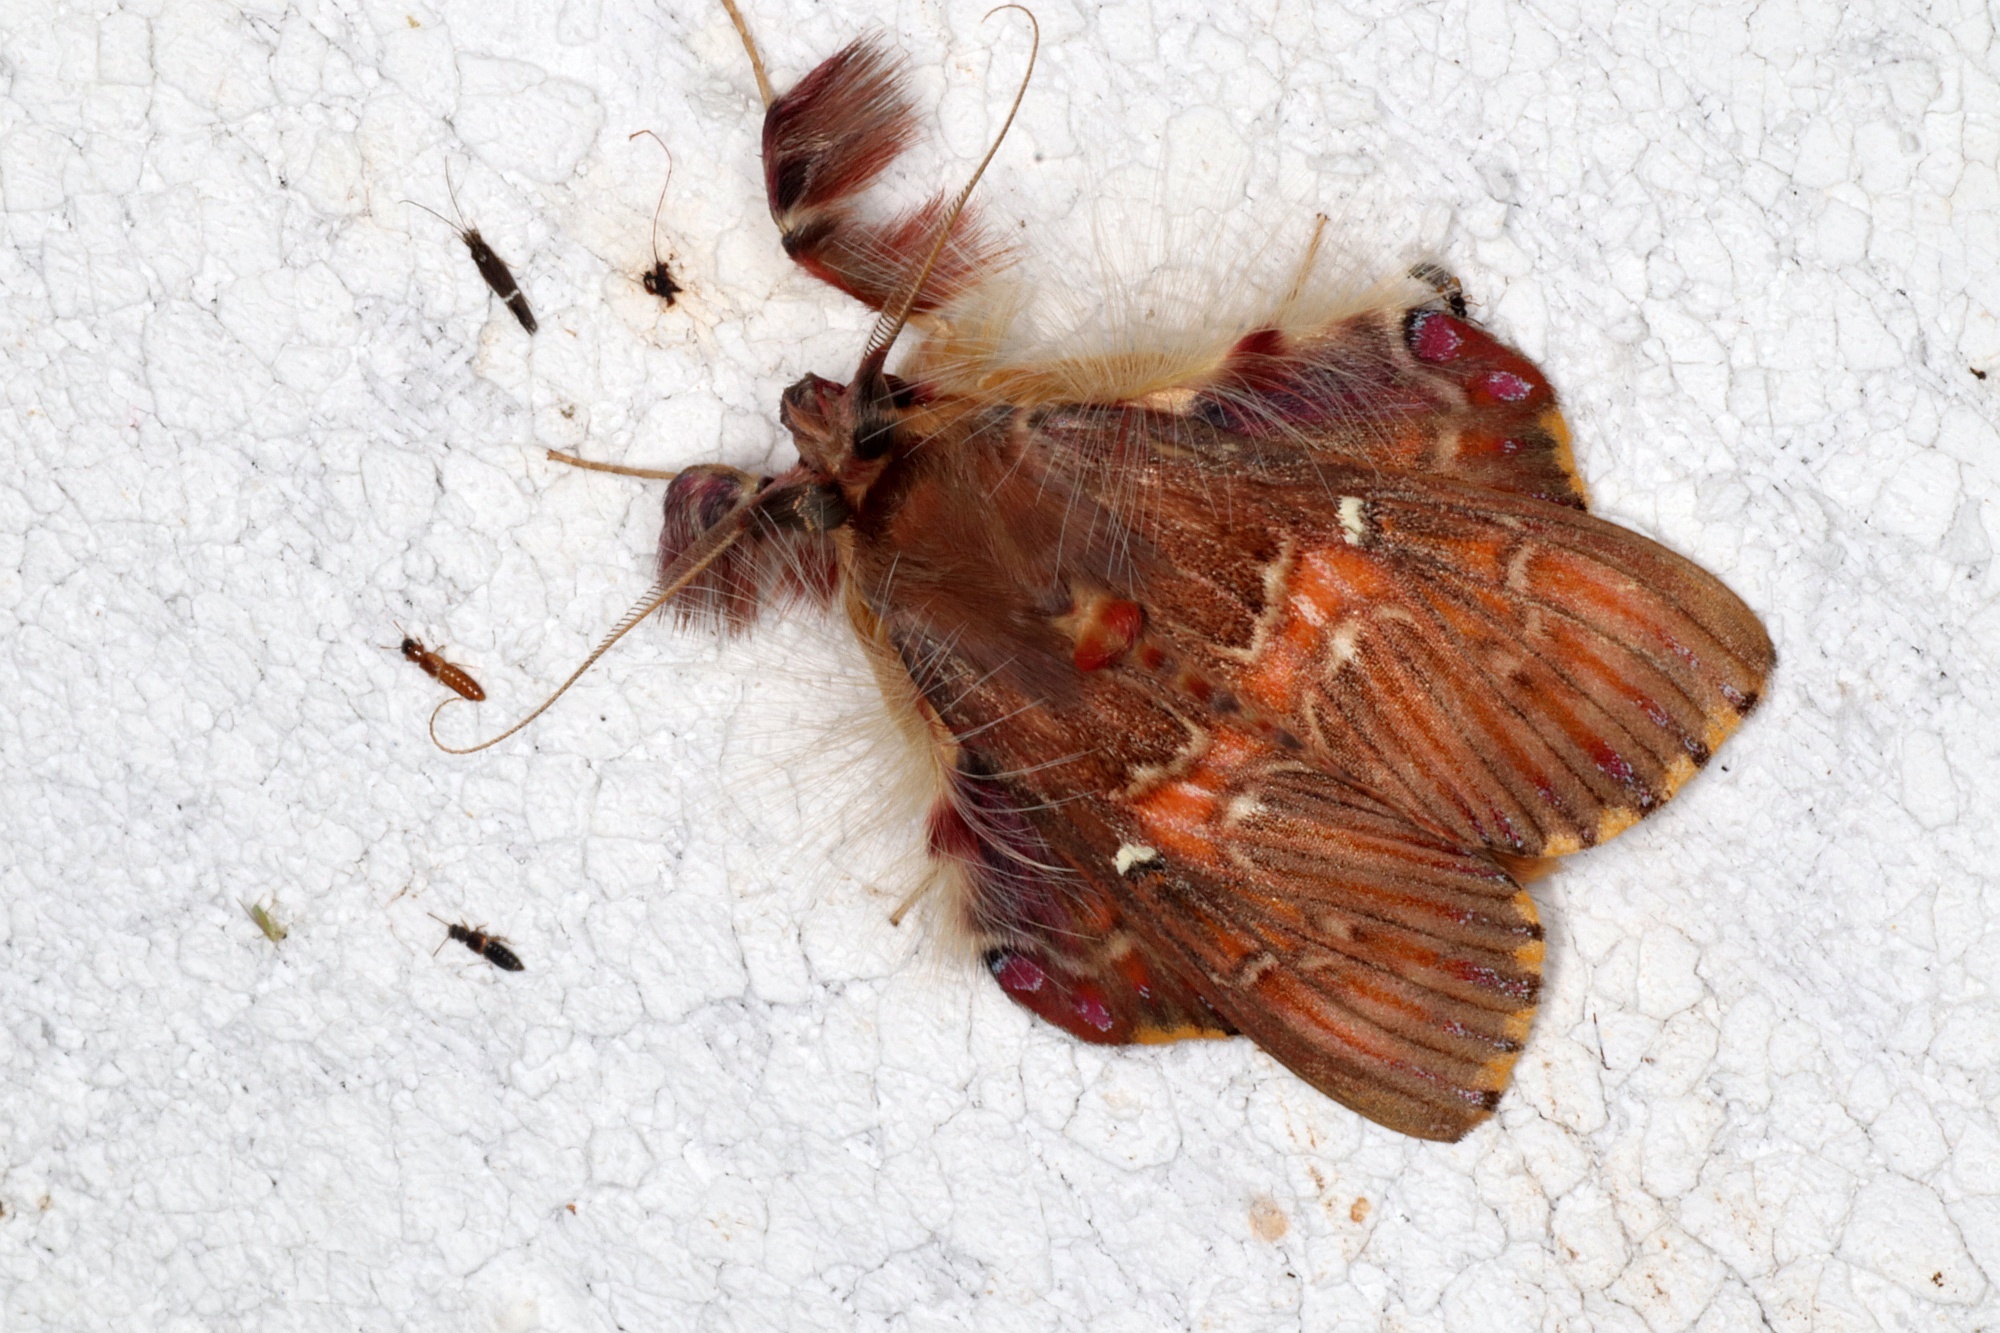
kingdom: Animalia
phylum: Arthropoda
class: Insecta
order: Lepidoptera
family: Erebidae
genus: Sosxetra
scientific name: Sosxetra grata
